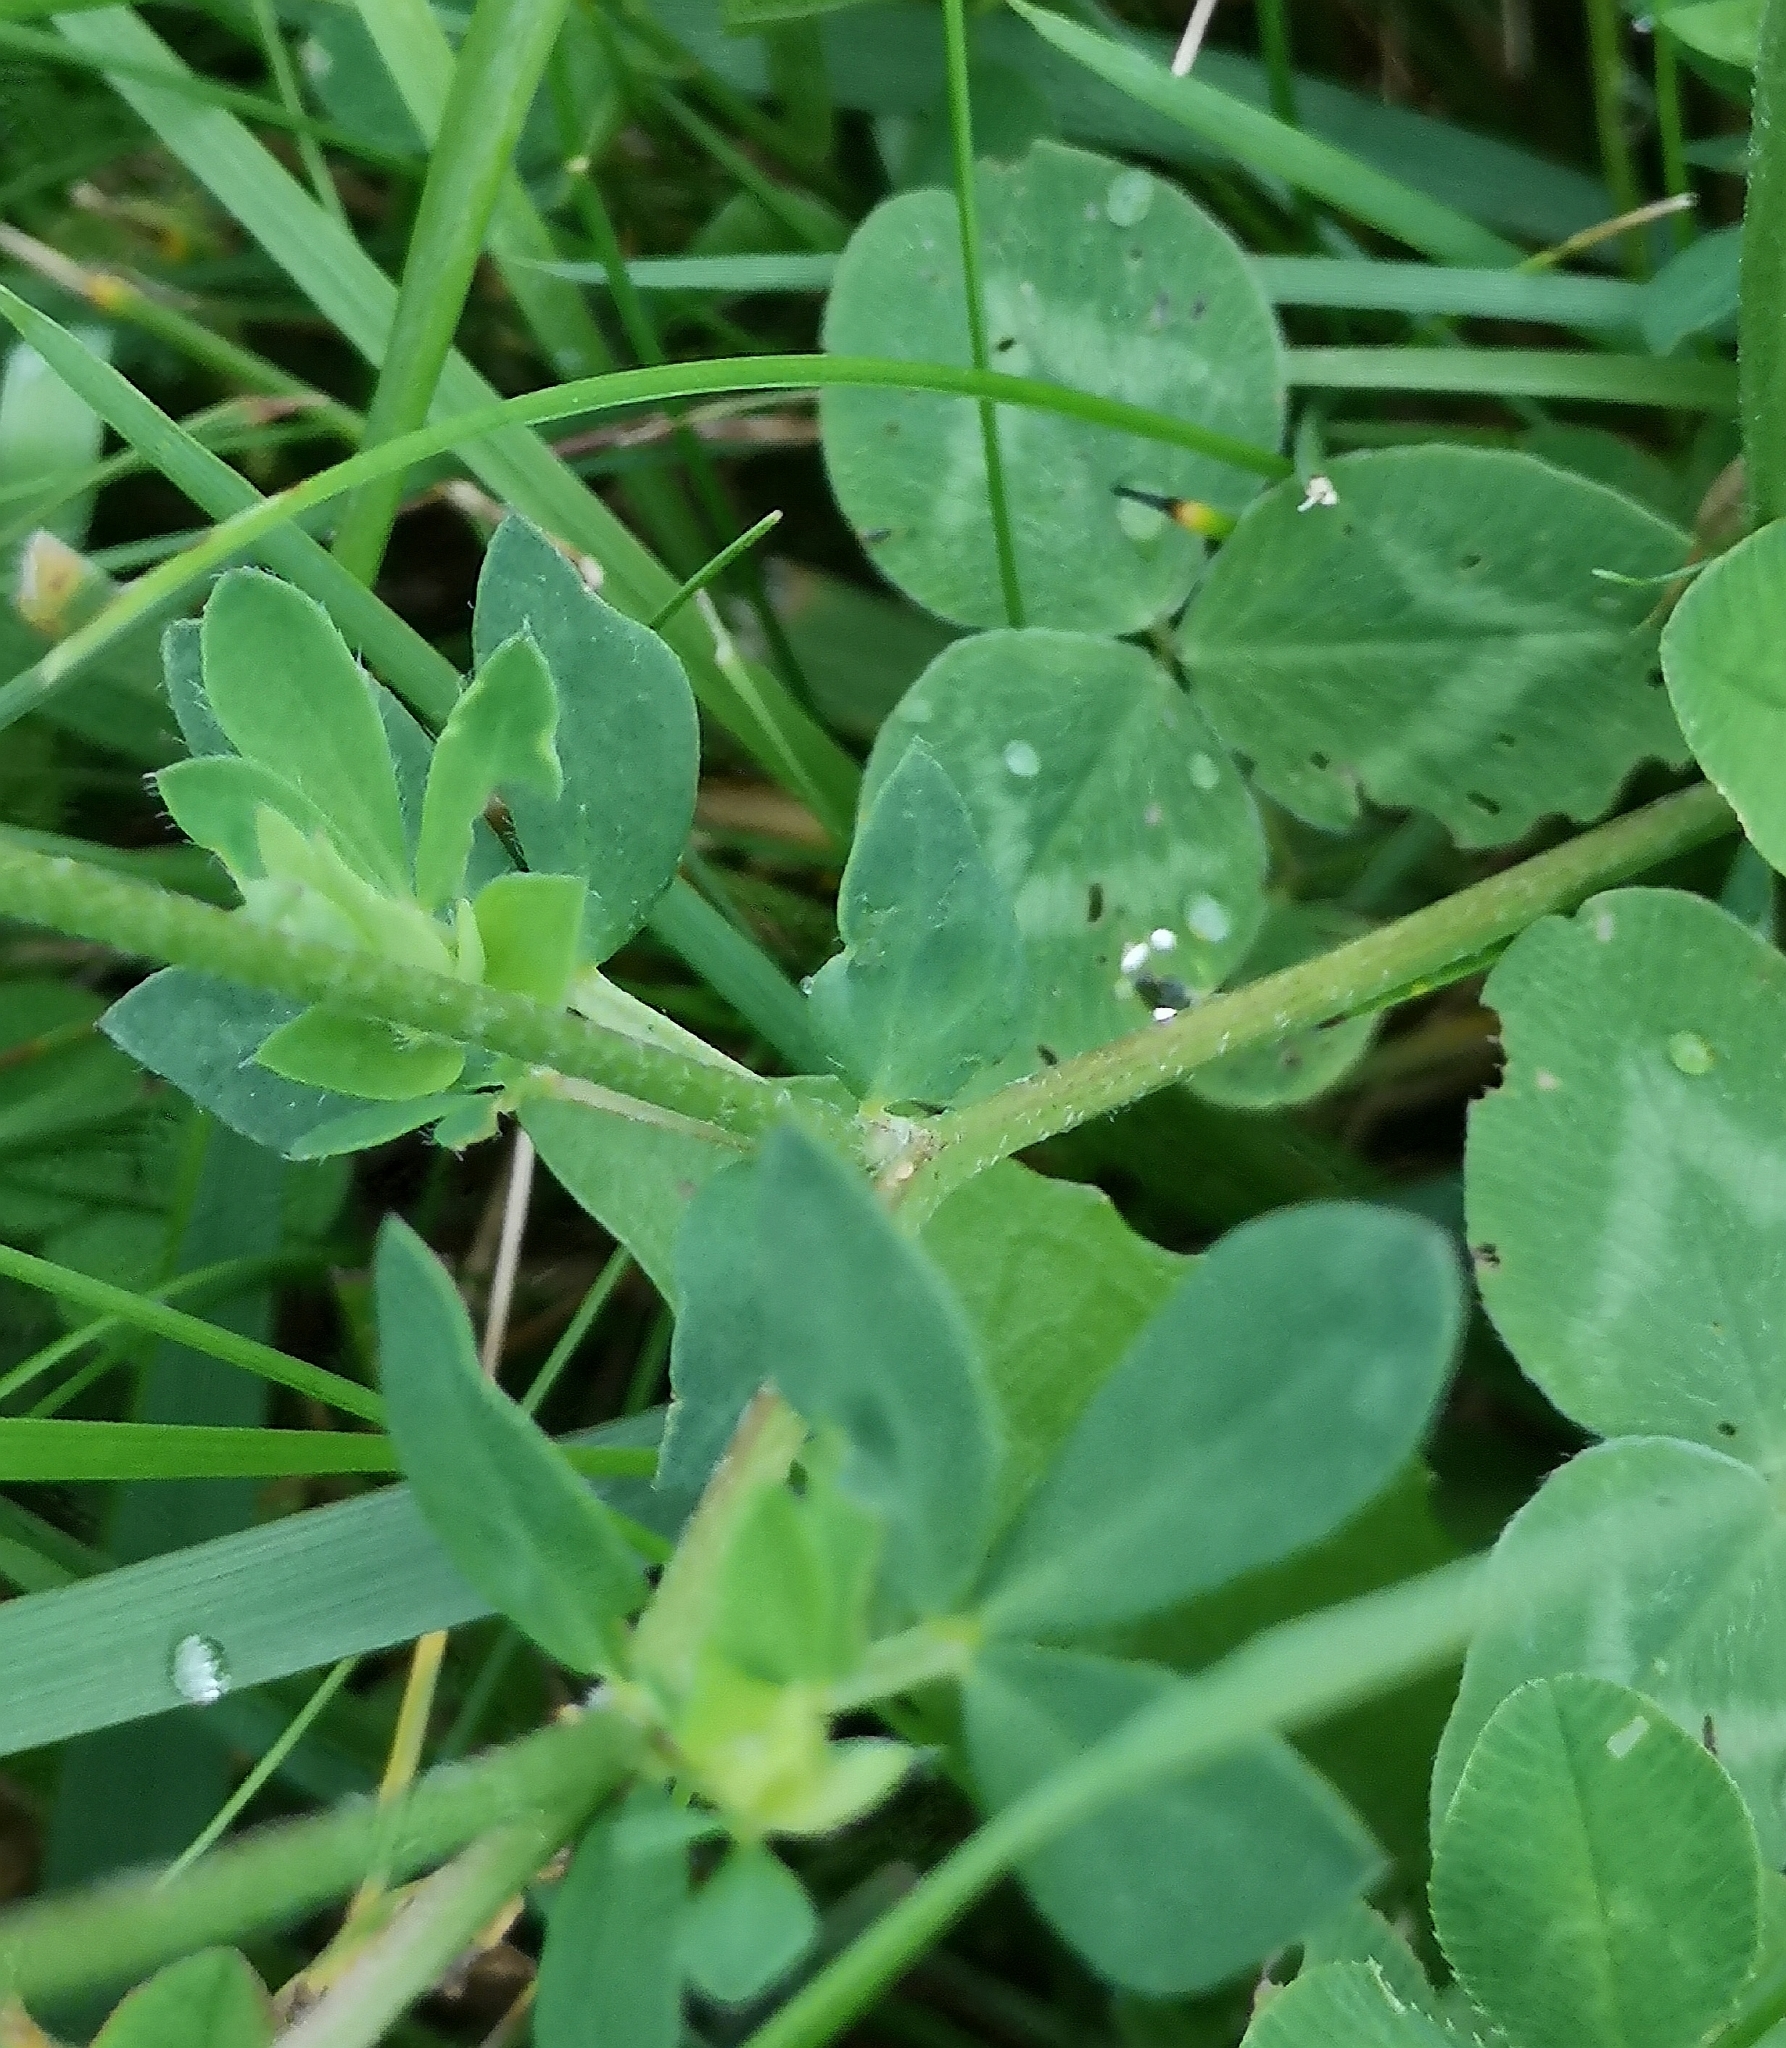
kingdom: Plantae
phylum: Tracheophyta
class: Magnoliopsida
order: Fabales
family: Fabaceae
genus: Lotus
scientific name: Lotus corniculatus
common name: Common bird's-foot-trefoil
